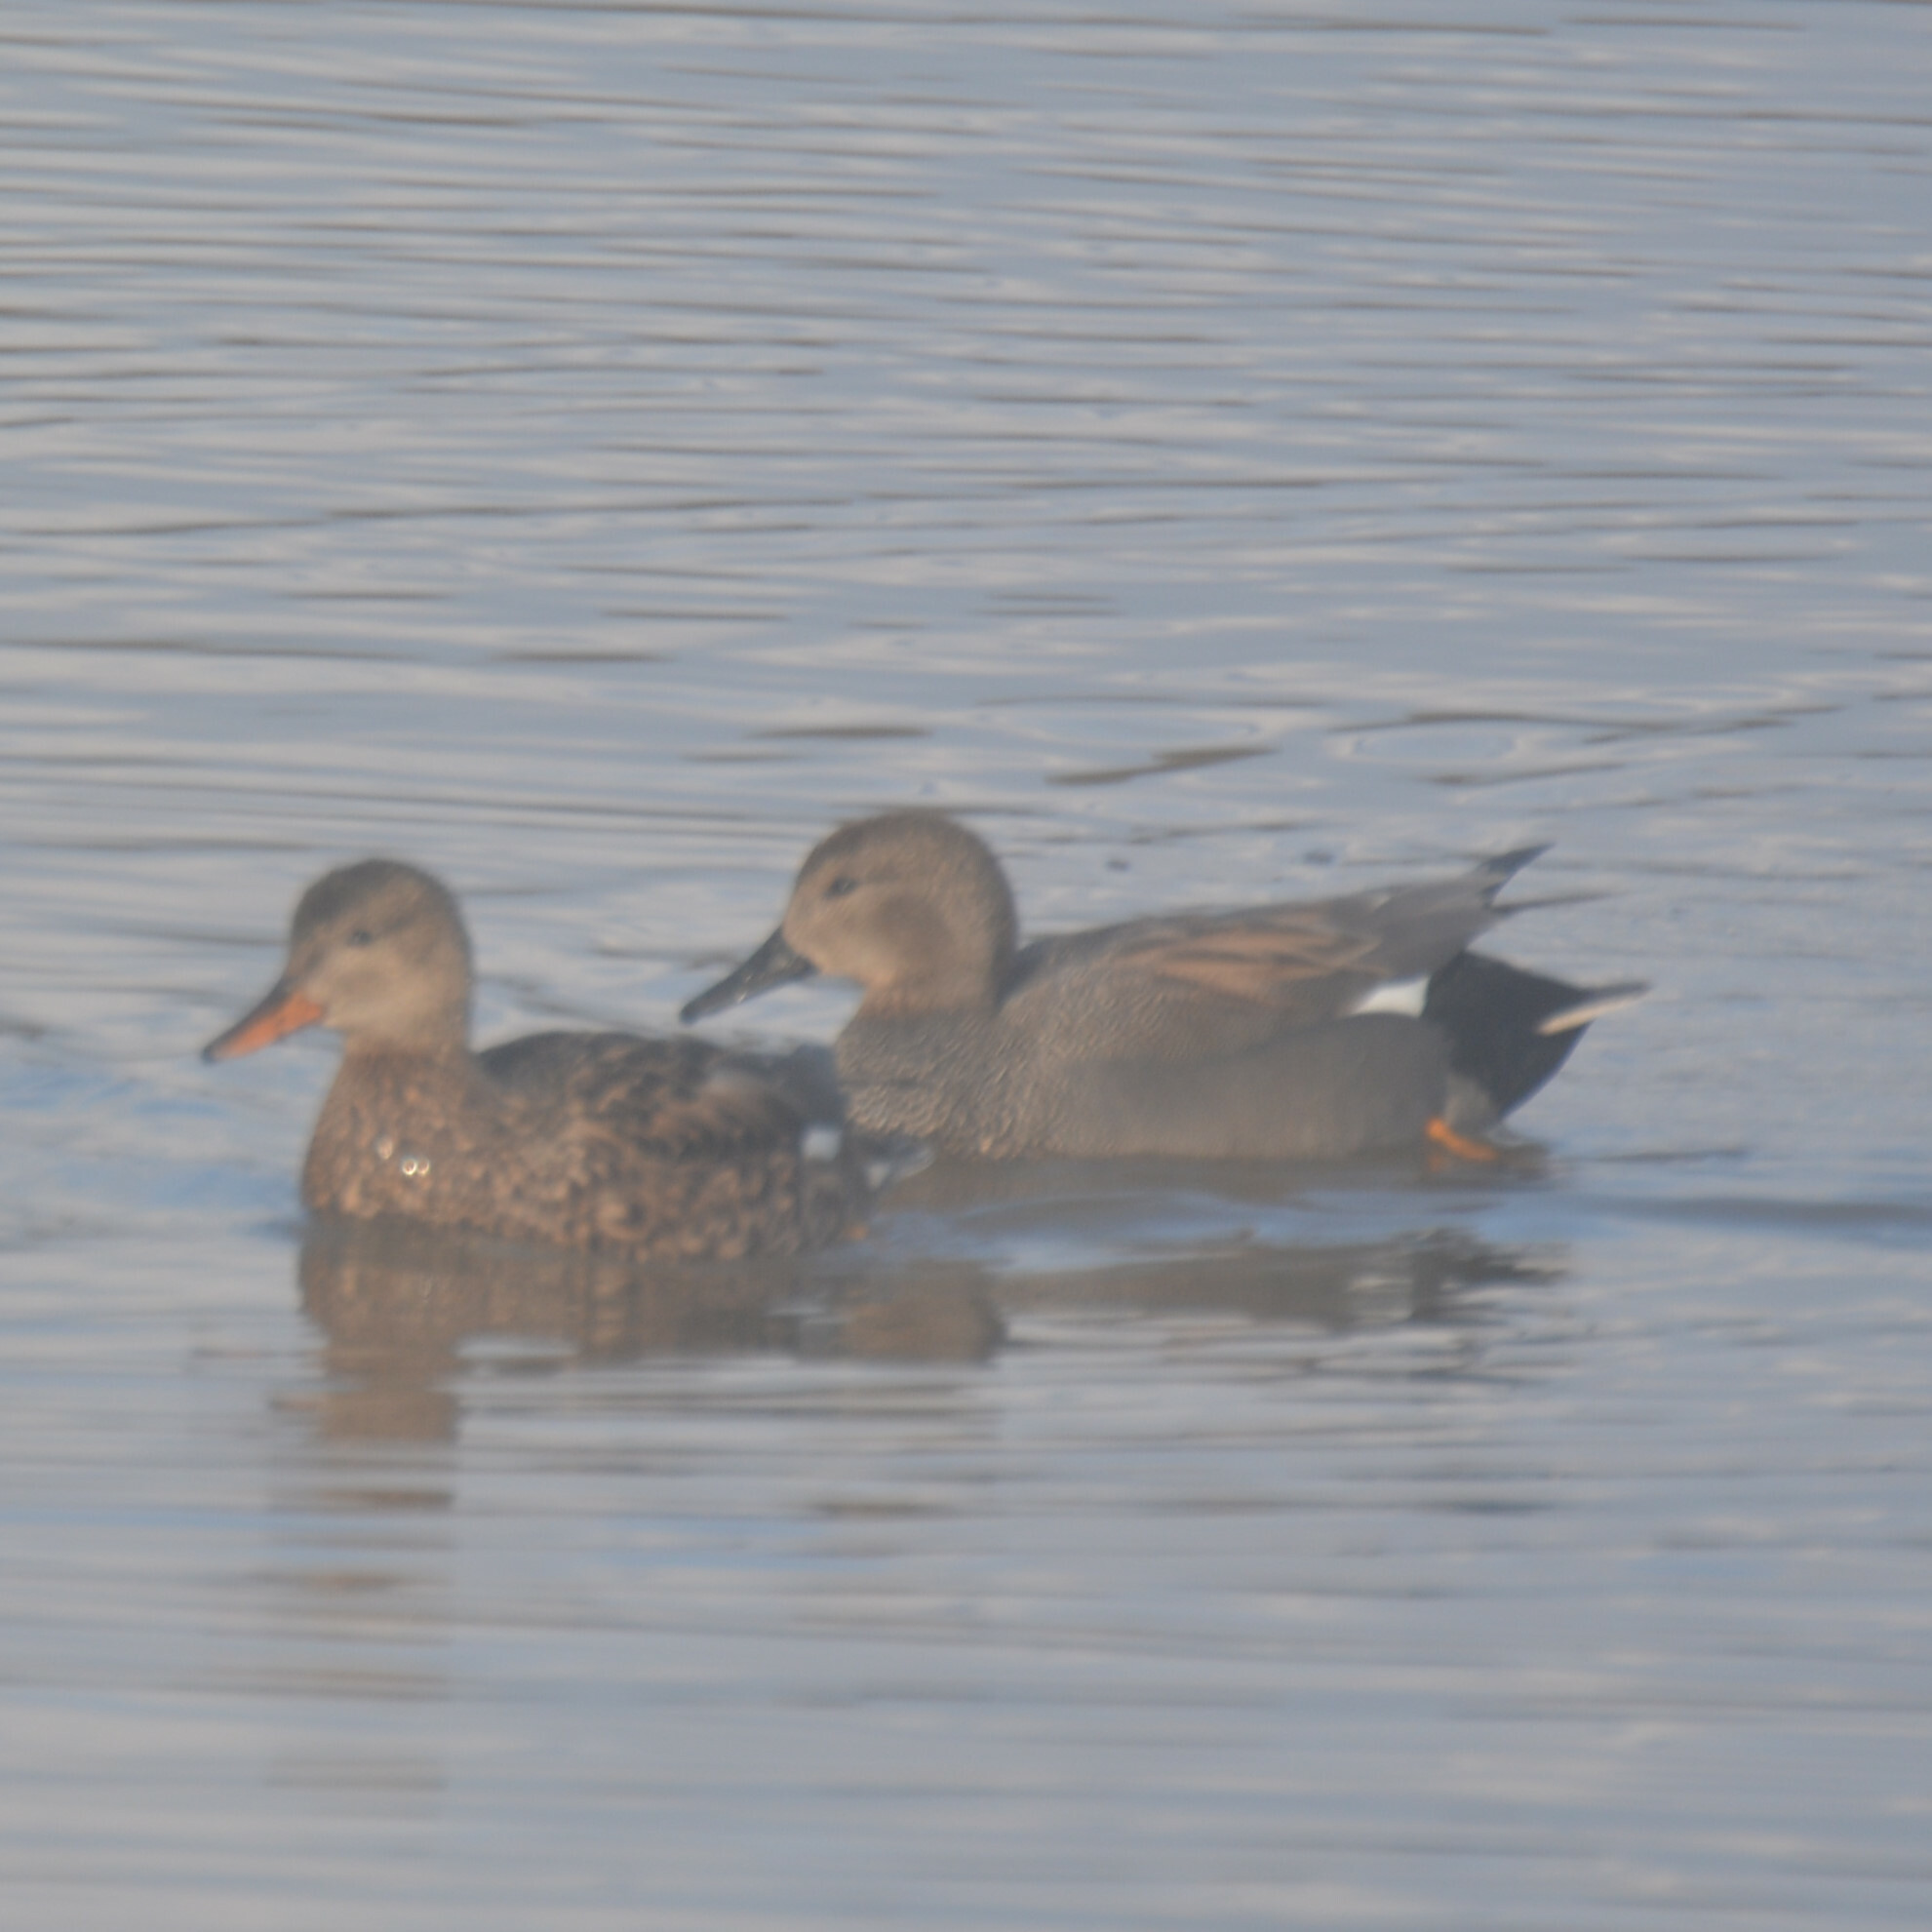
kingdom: Animalia
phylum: Chordata
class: Aves
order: Anseriformes
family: Anatidae
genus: Mareca
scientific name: Mareca strepera
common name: Gadwall
